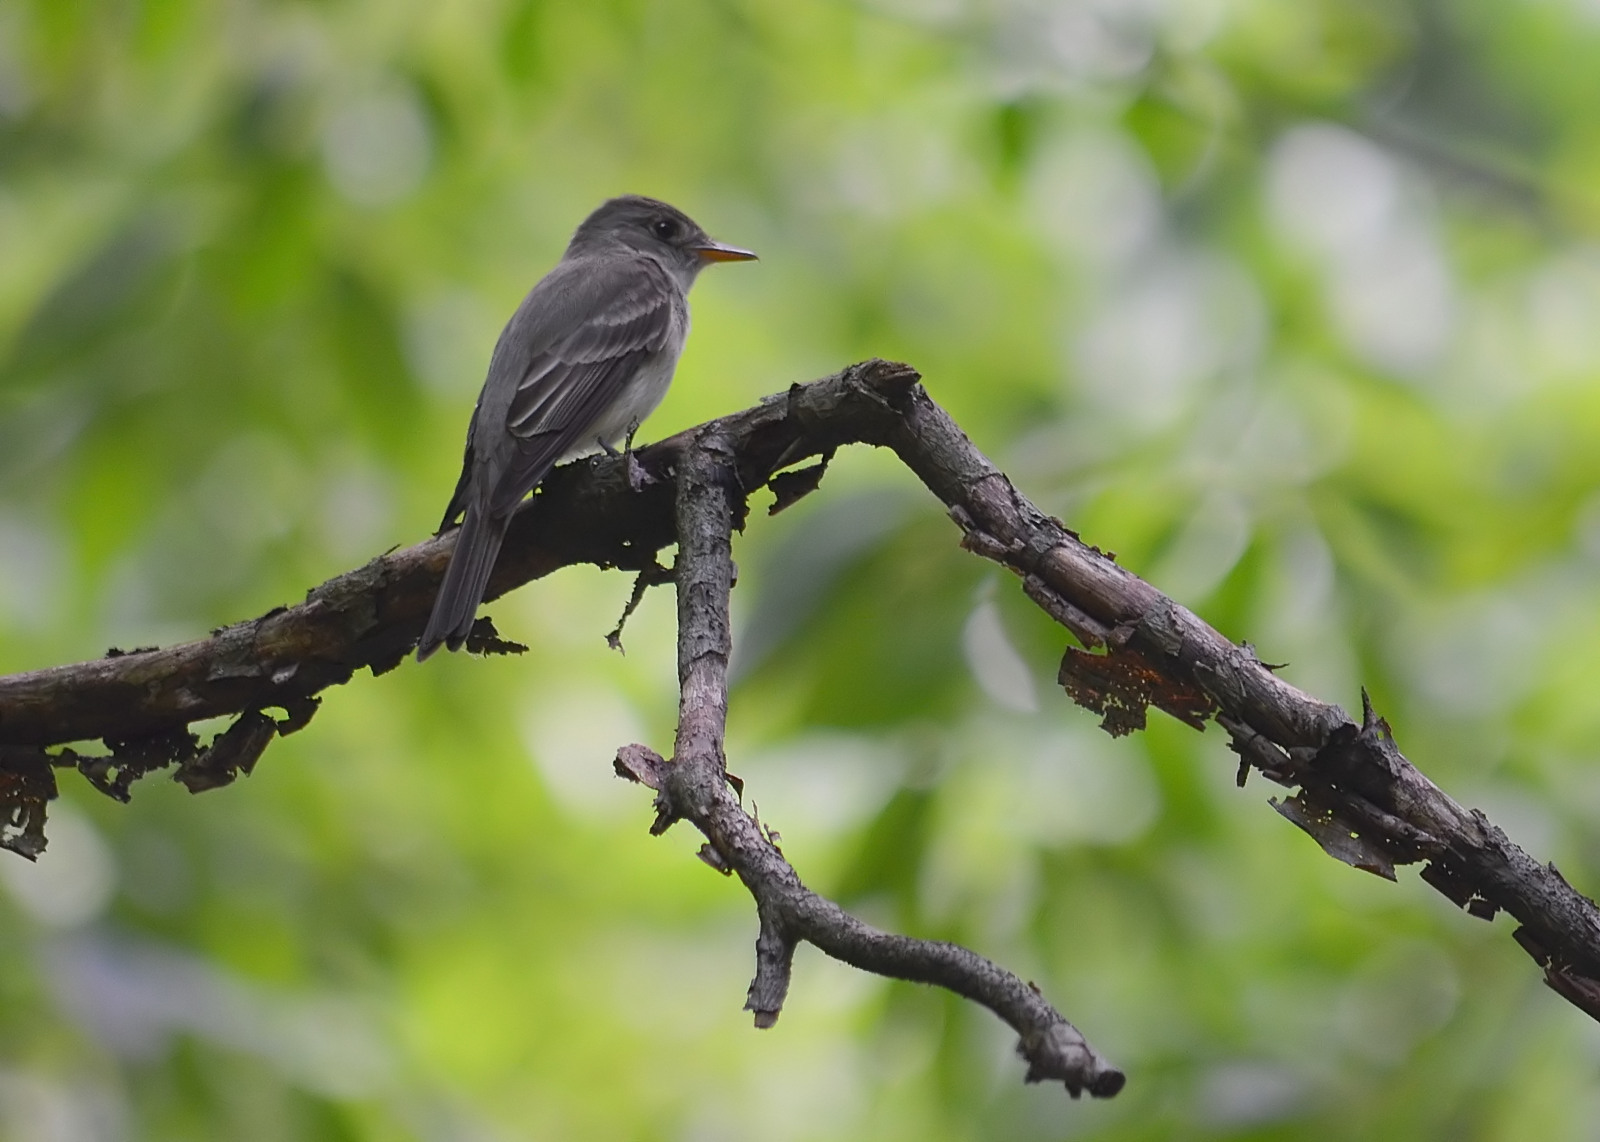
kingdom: Animalia
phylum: Chordata
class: Aves
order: Passeriformes
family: Tyrannidae
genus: Contopus
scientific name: Contopus virens
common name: Eastern wood-pewee
